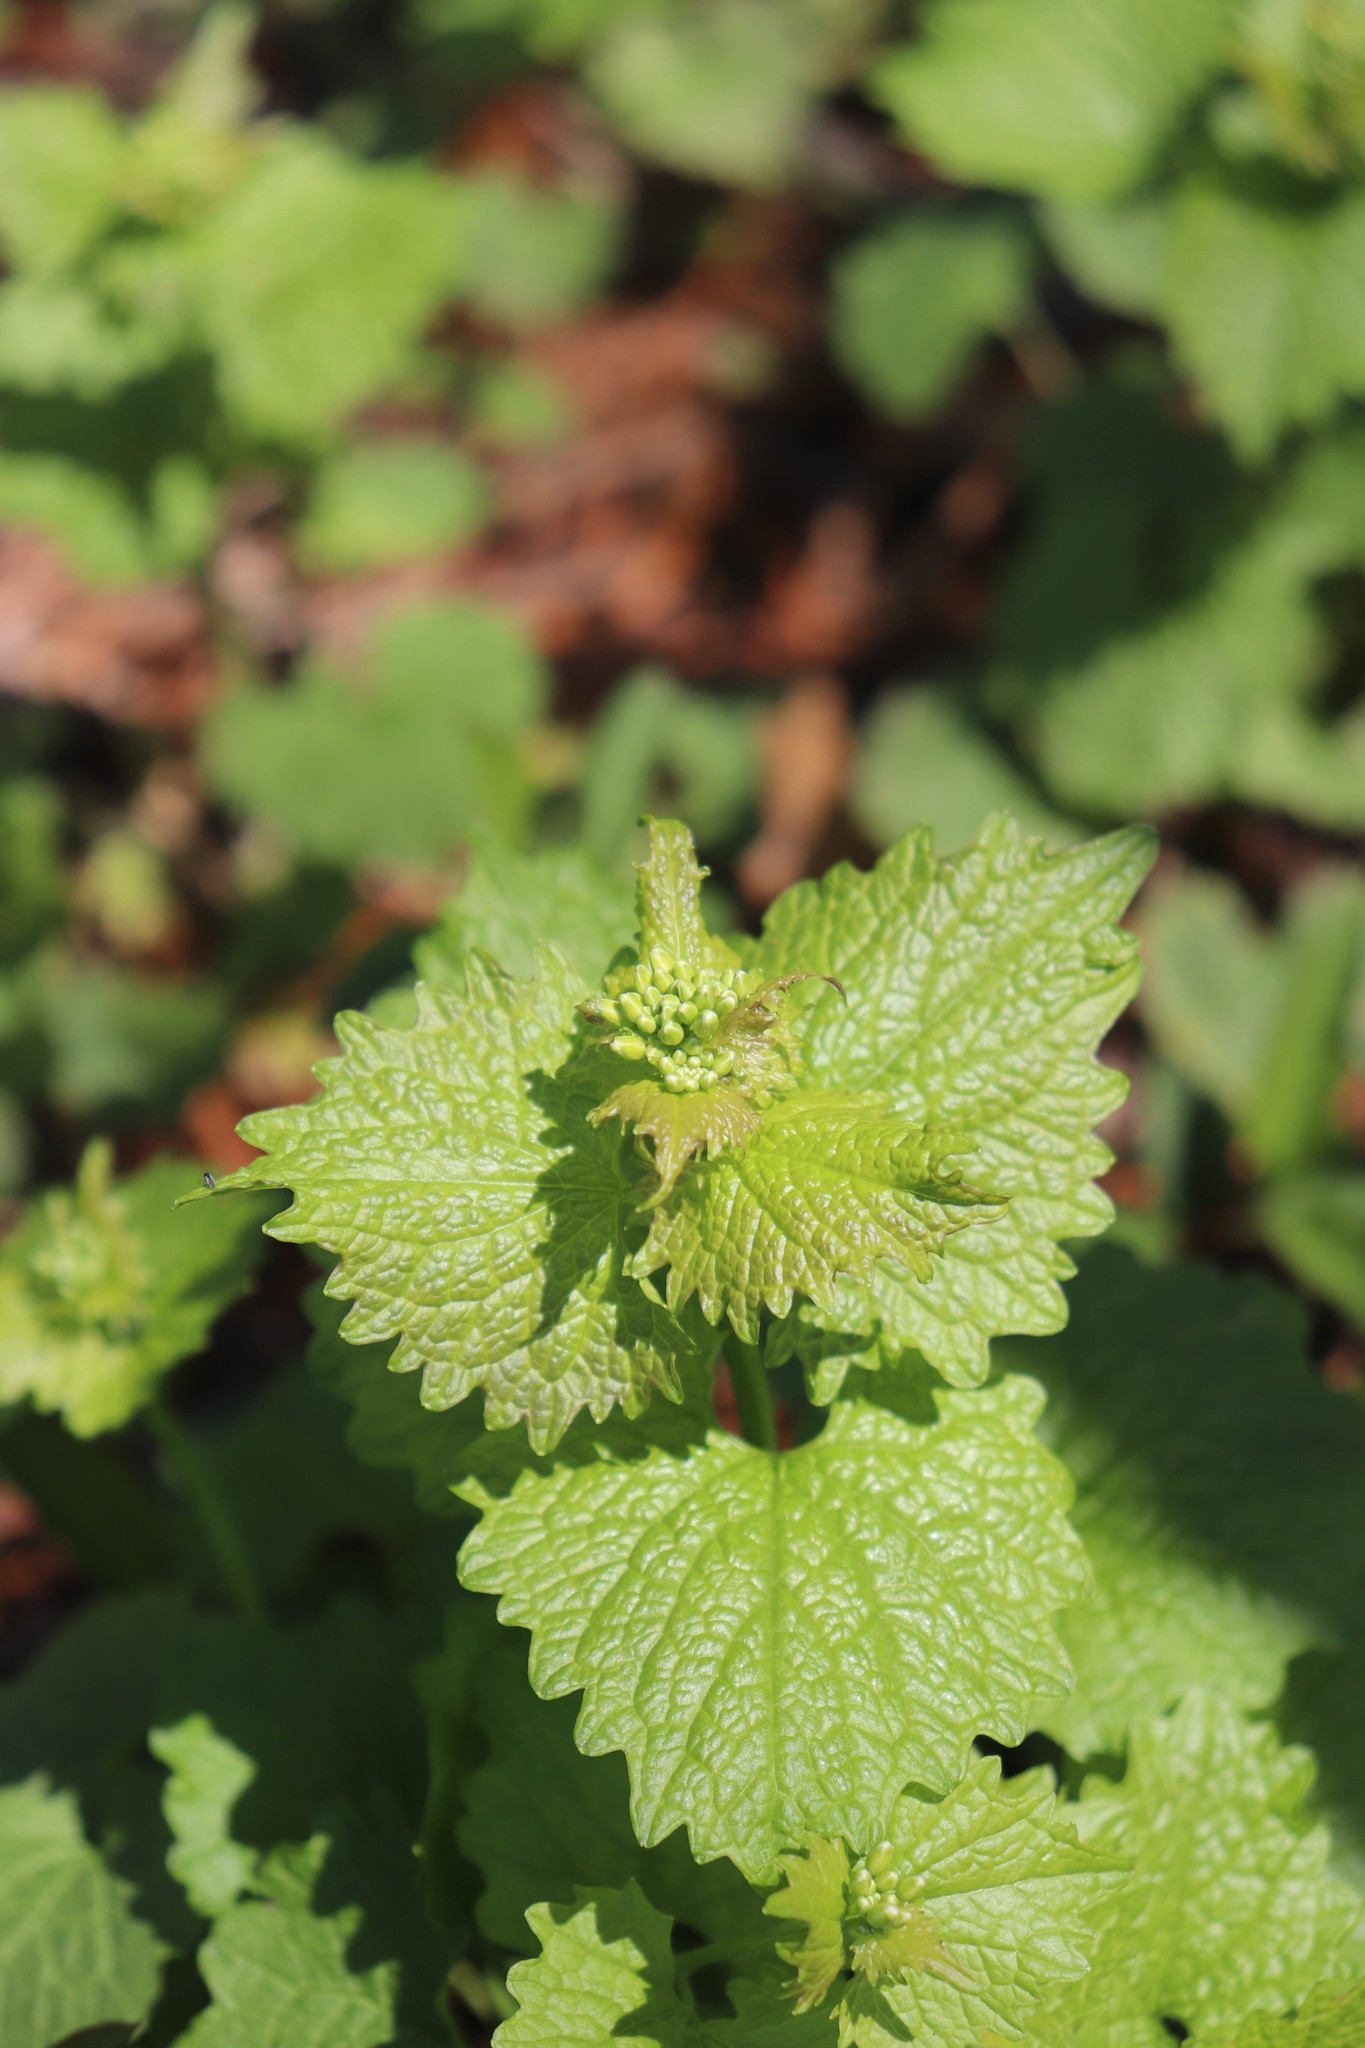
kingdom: Plantae
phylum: Tracheophyta
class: Magnoliopsida
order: Brassicales
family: Brassicaceae
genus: Alliaria
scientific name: Alliaria petiolata
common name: Garlic mustard
